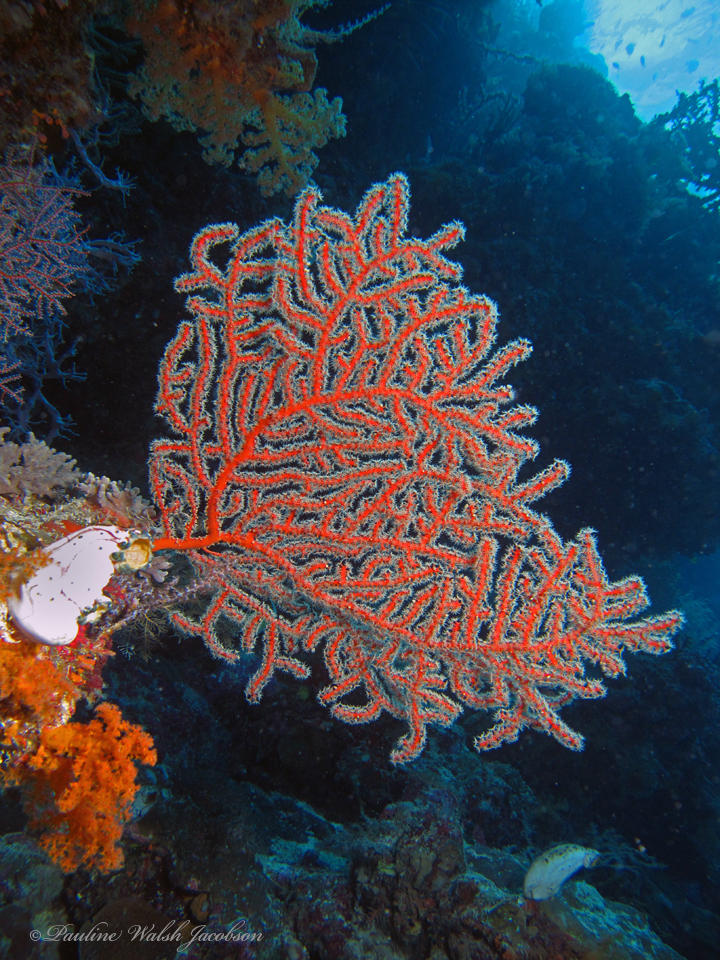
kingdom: Animalia
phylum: Cnidaria
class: Anthozoa
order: Malacalcyonacea
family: Astrogorgiidae
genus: Astrogorgia
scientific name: Astrogorgia dumbea
